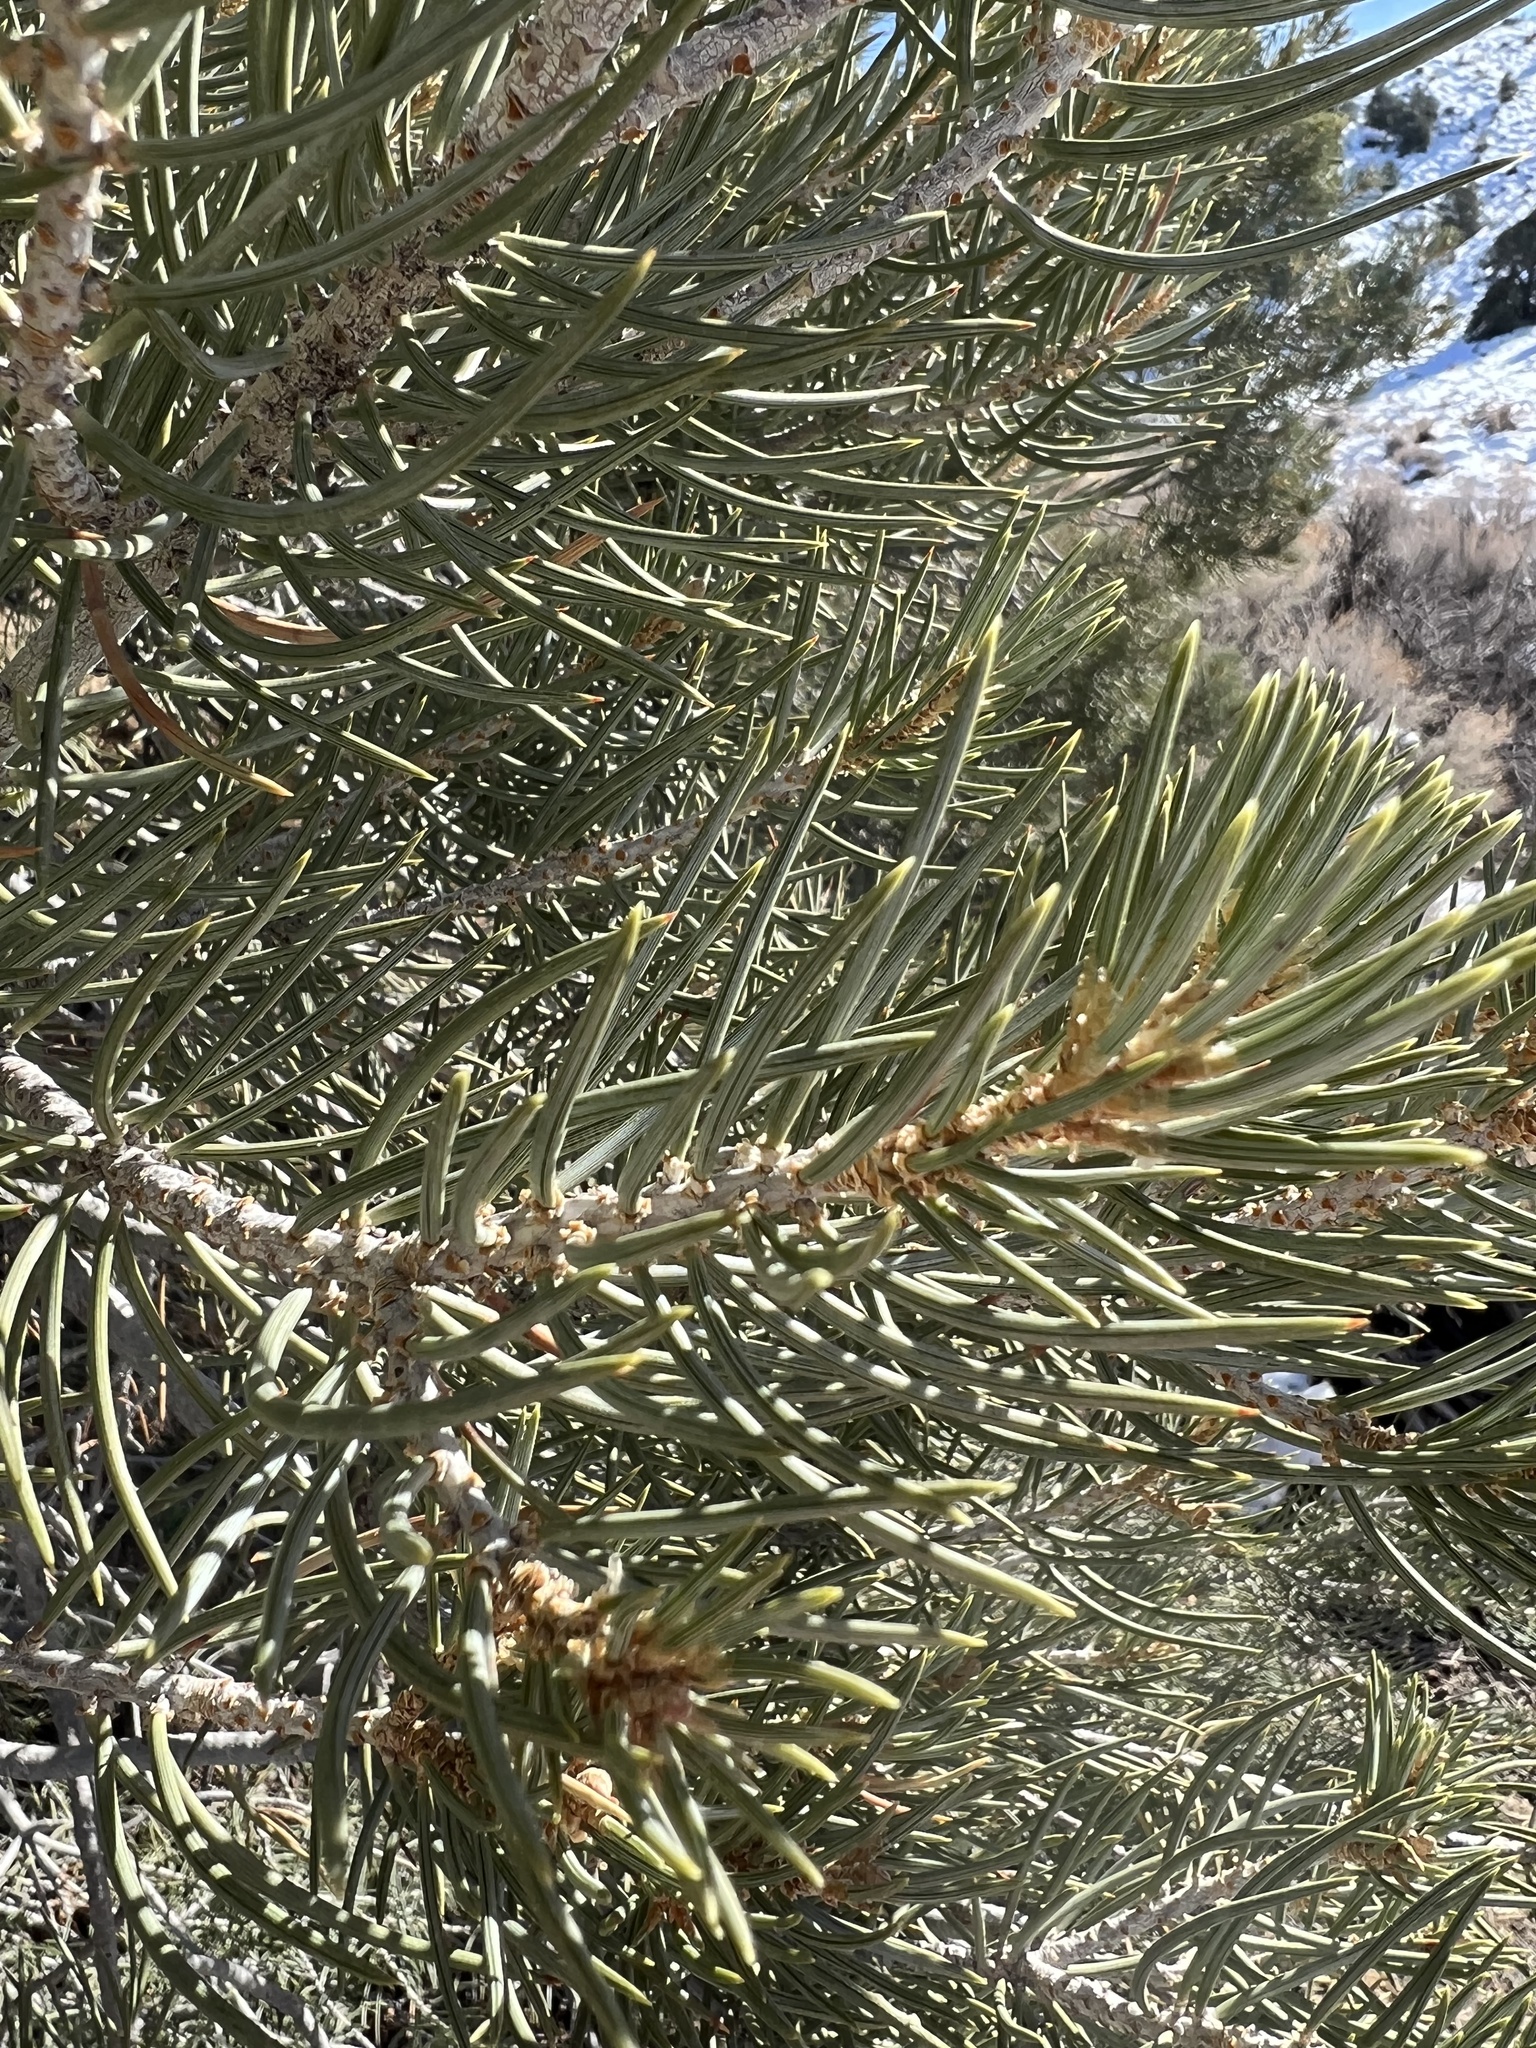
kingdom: Plantae
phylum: Tracheophyta
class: Pinopsida
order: Pinales
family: Pinaceae
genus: Pinus
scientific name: Pinus monophylla
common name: One-leaved nut pine
